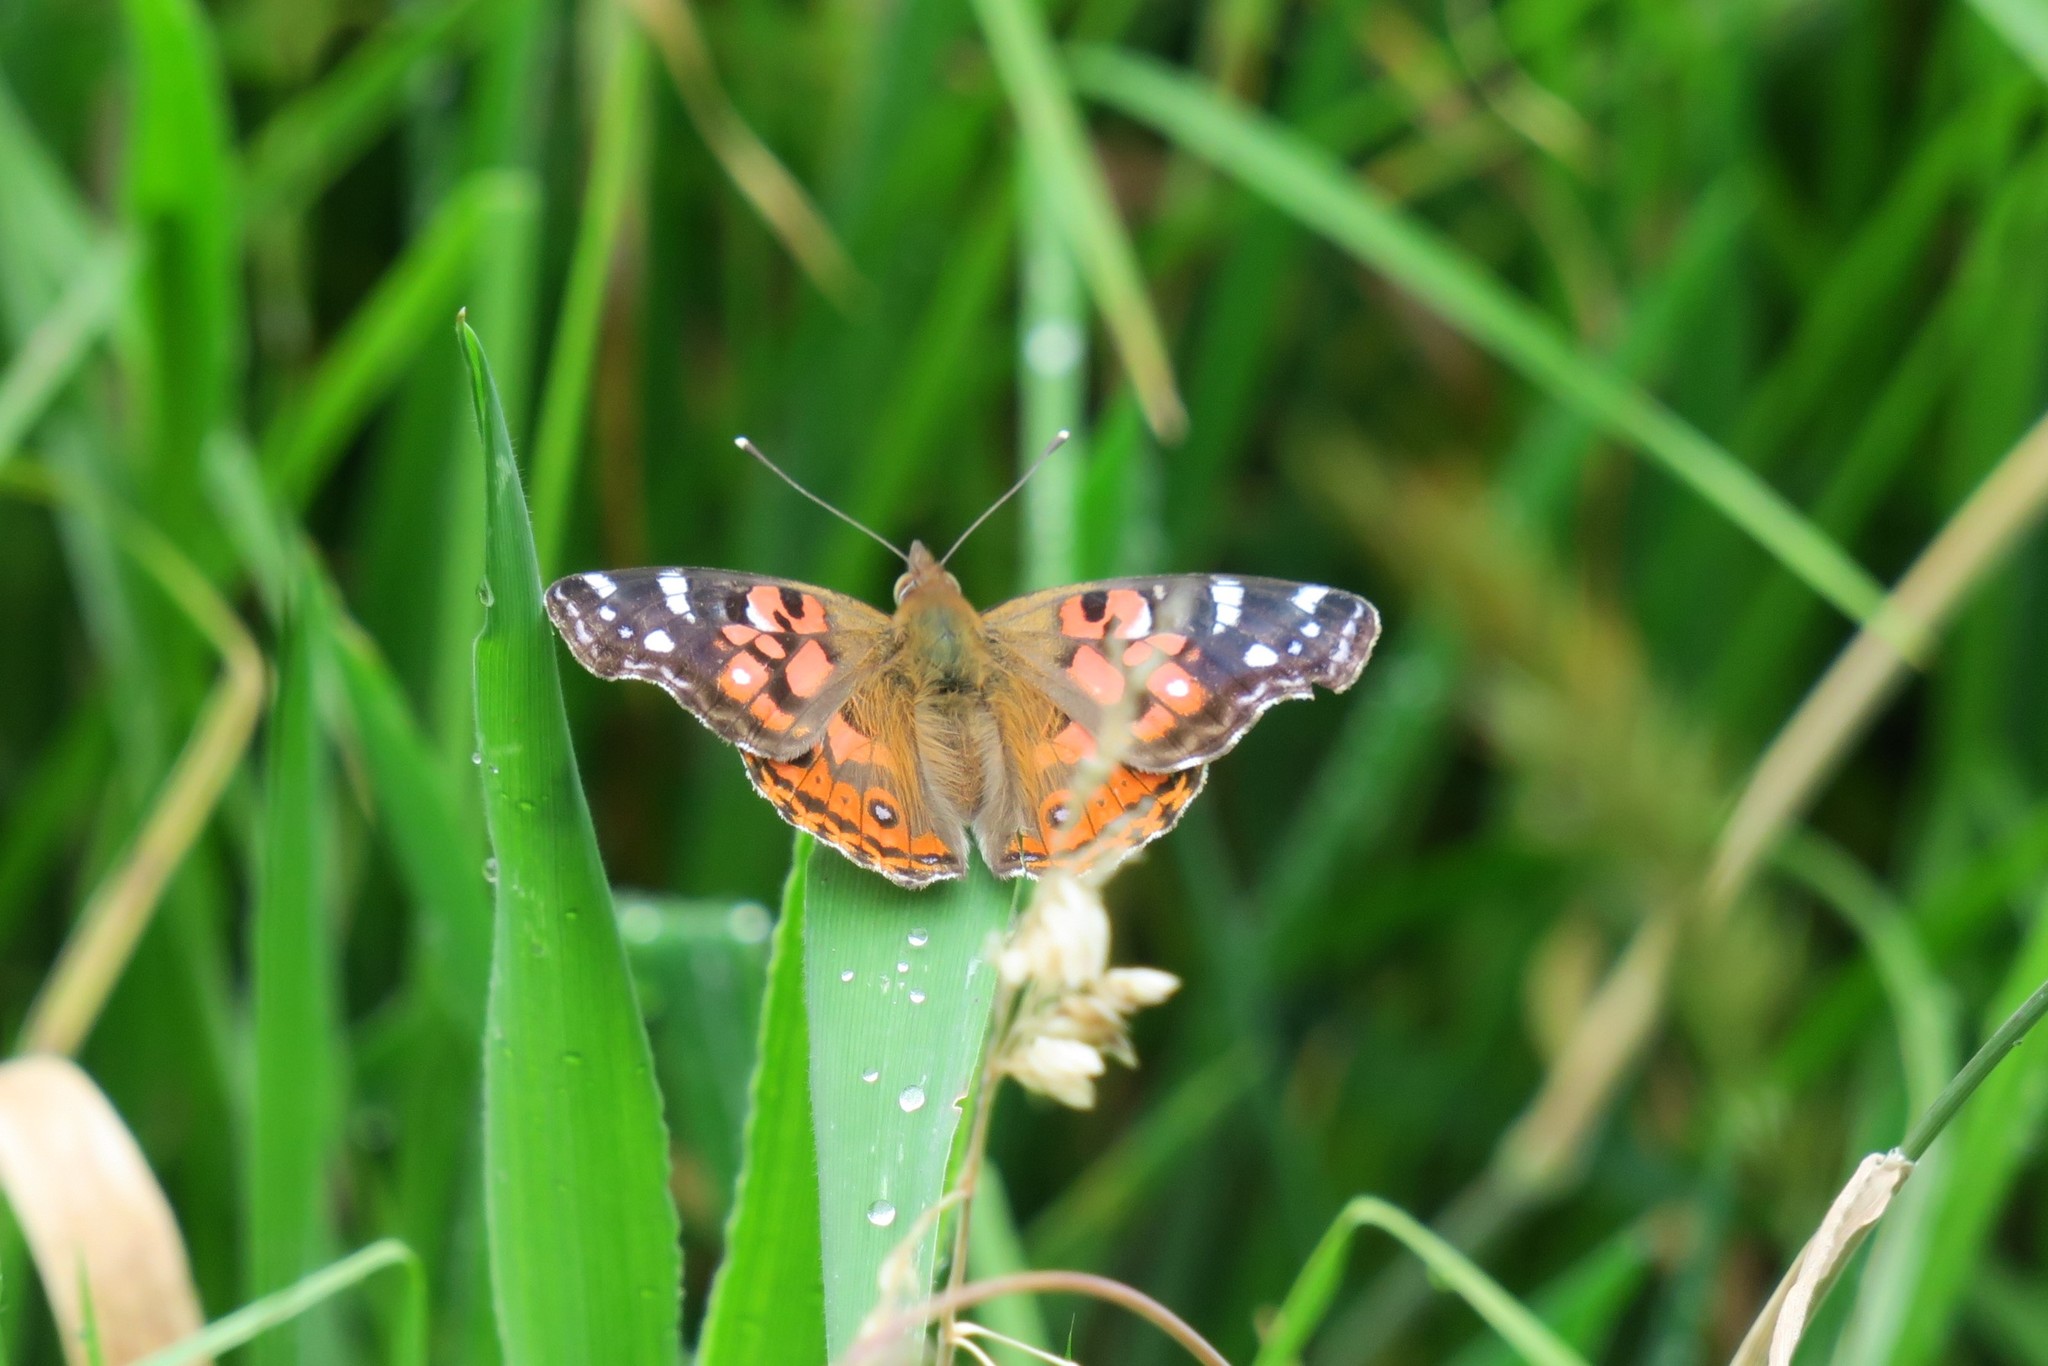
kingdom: Animalia
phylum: Arthropoda
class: Insecta
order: Lepidoptera
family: Nymphalidae
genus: Vanessa
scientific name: Vanessa braziliensis
